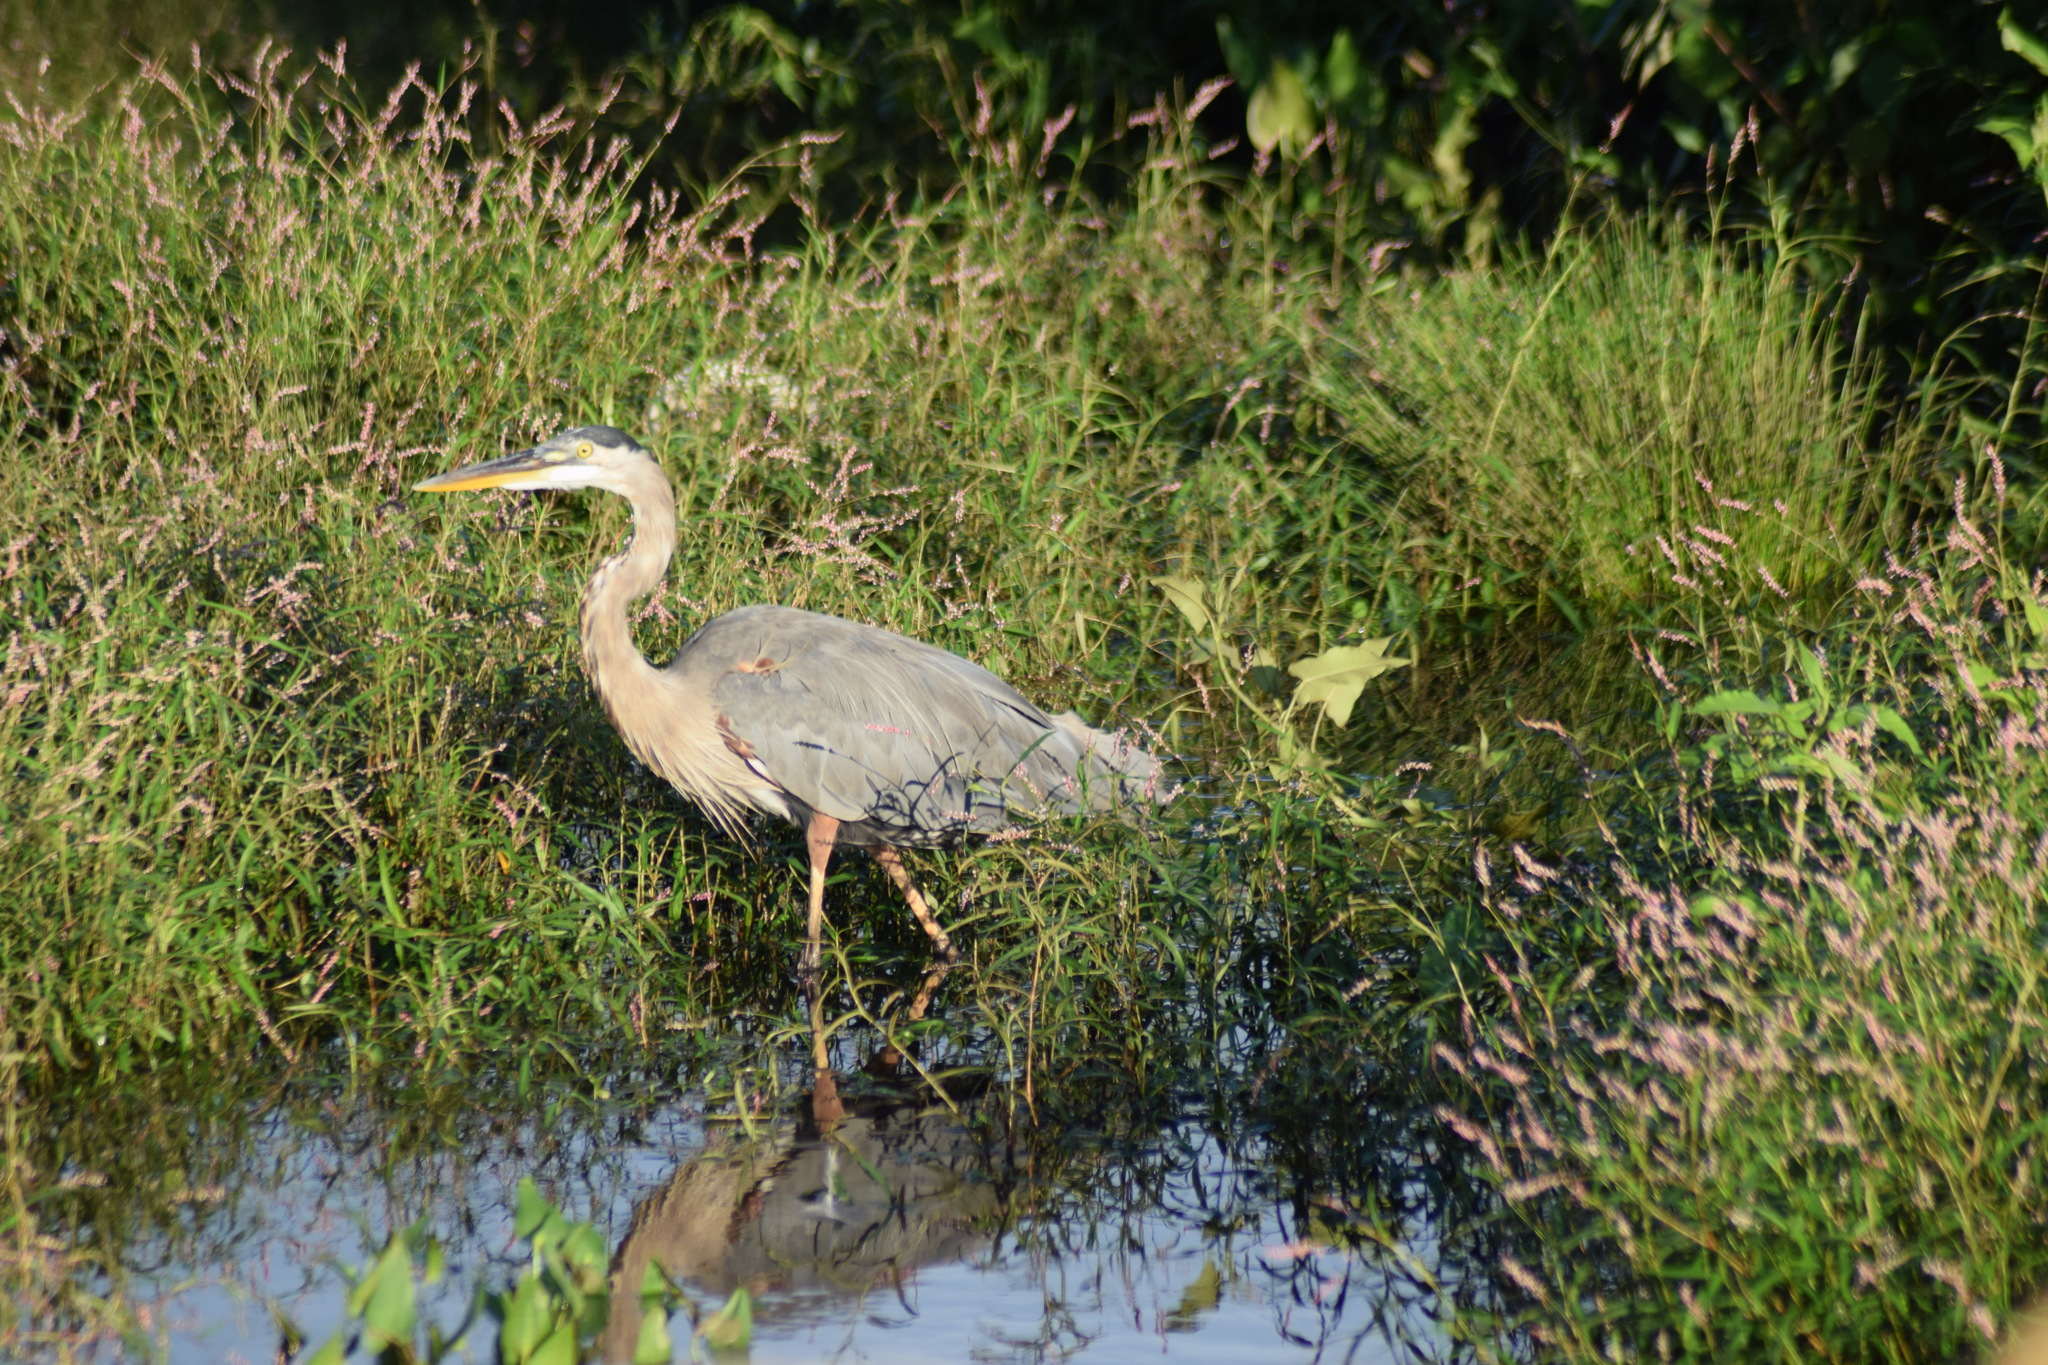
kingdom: Animalia
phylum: Chordata
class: Aves
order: Pelecaniformes
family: Ardeidae
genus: Ardea
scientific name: Ardea herodias
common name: Great blue heron
